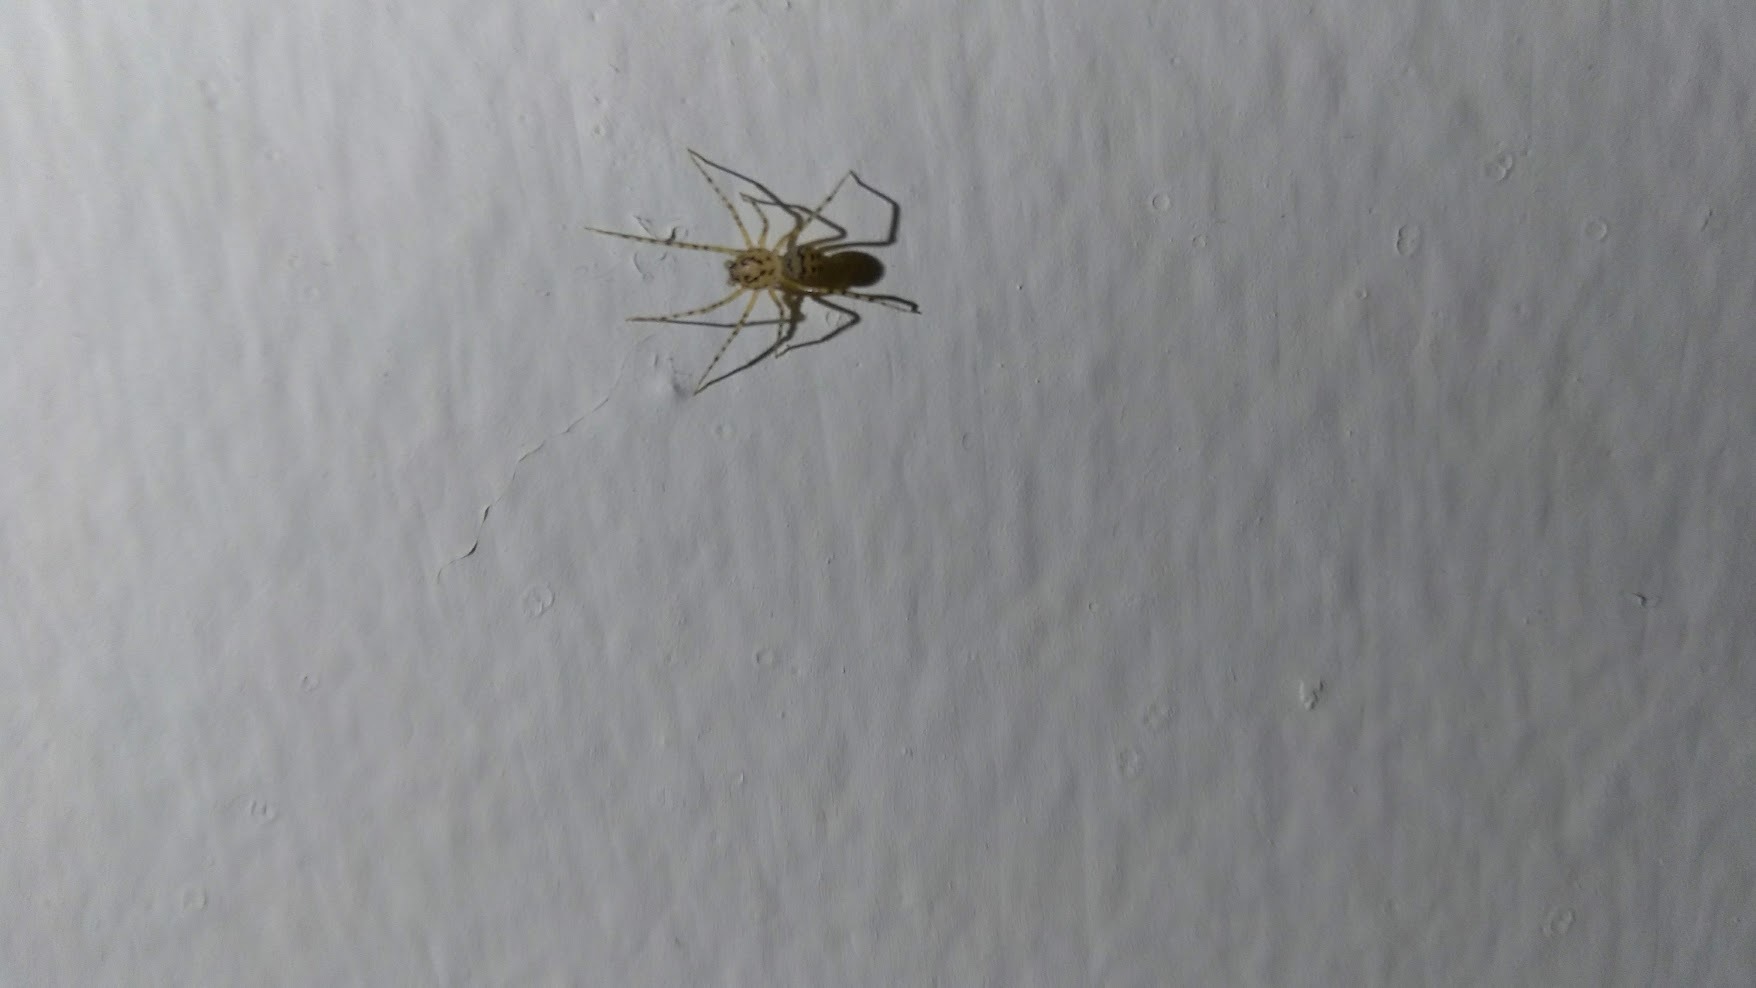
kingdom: Animalia
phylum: Arthropoda
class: Arachnida
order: Araneae
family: Scytodidae
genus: Scytodes
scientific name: Scytodes thoracica
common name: Spitting spider
